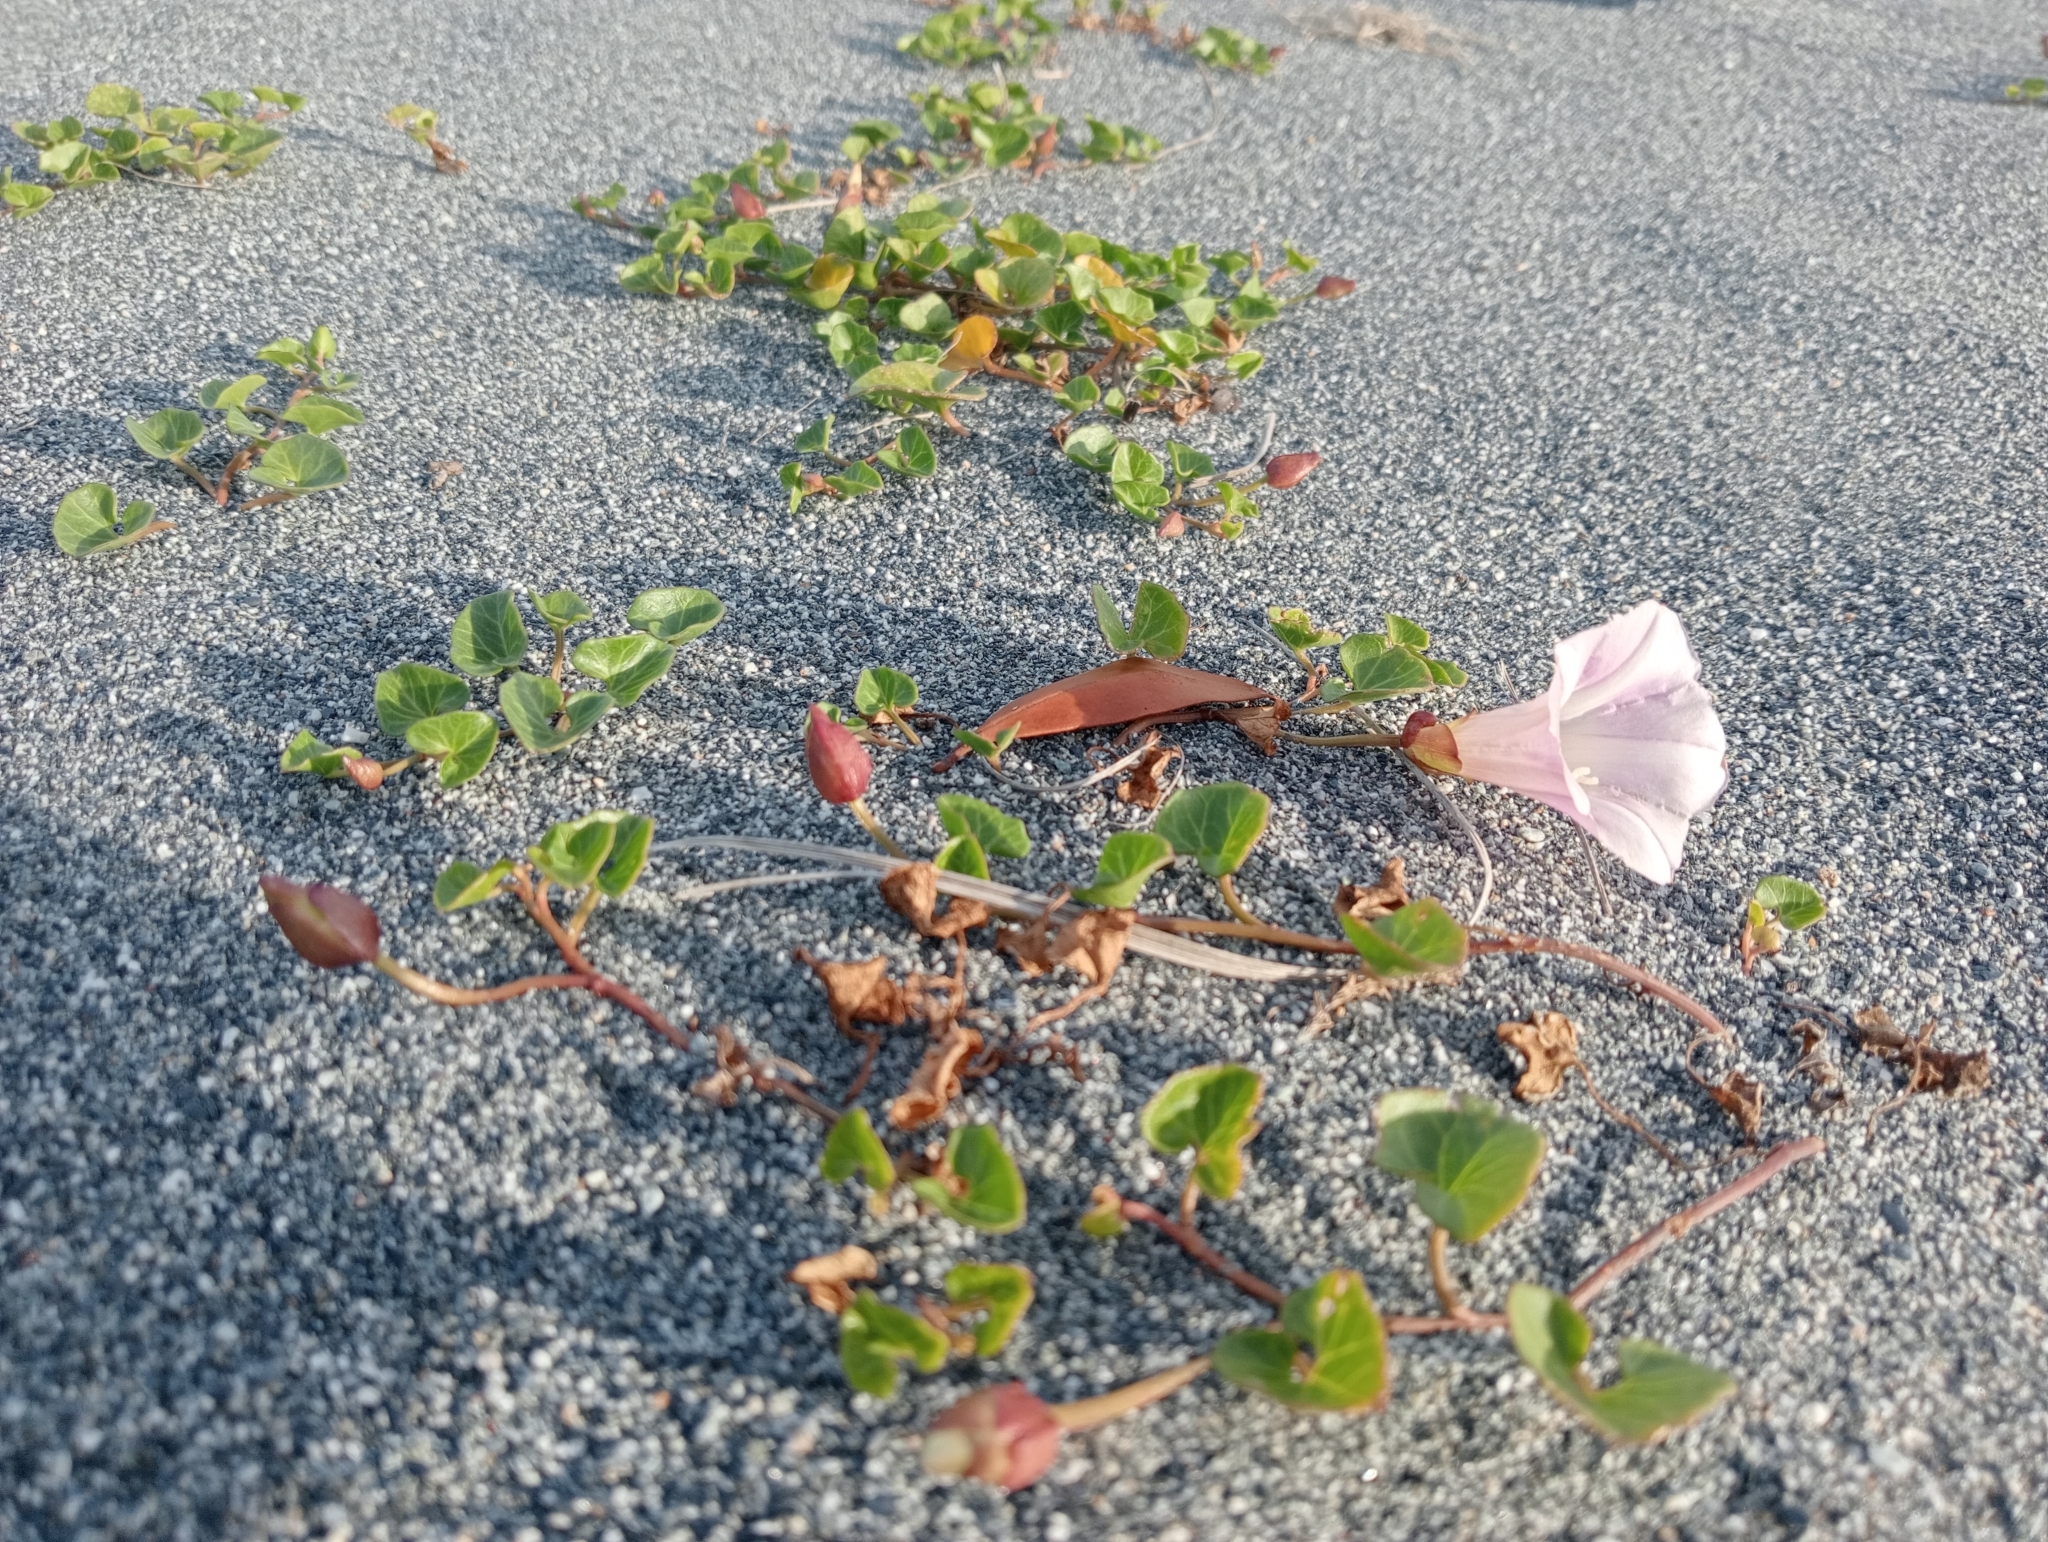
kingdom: Plantae
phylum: Tracheophyta
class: Magnoliopsida
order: Solanales
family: Convolvulaceae
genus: Calystegia
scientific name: Calystegia soldanella
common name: Sea bindweed
